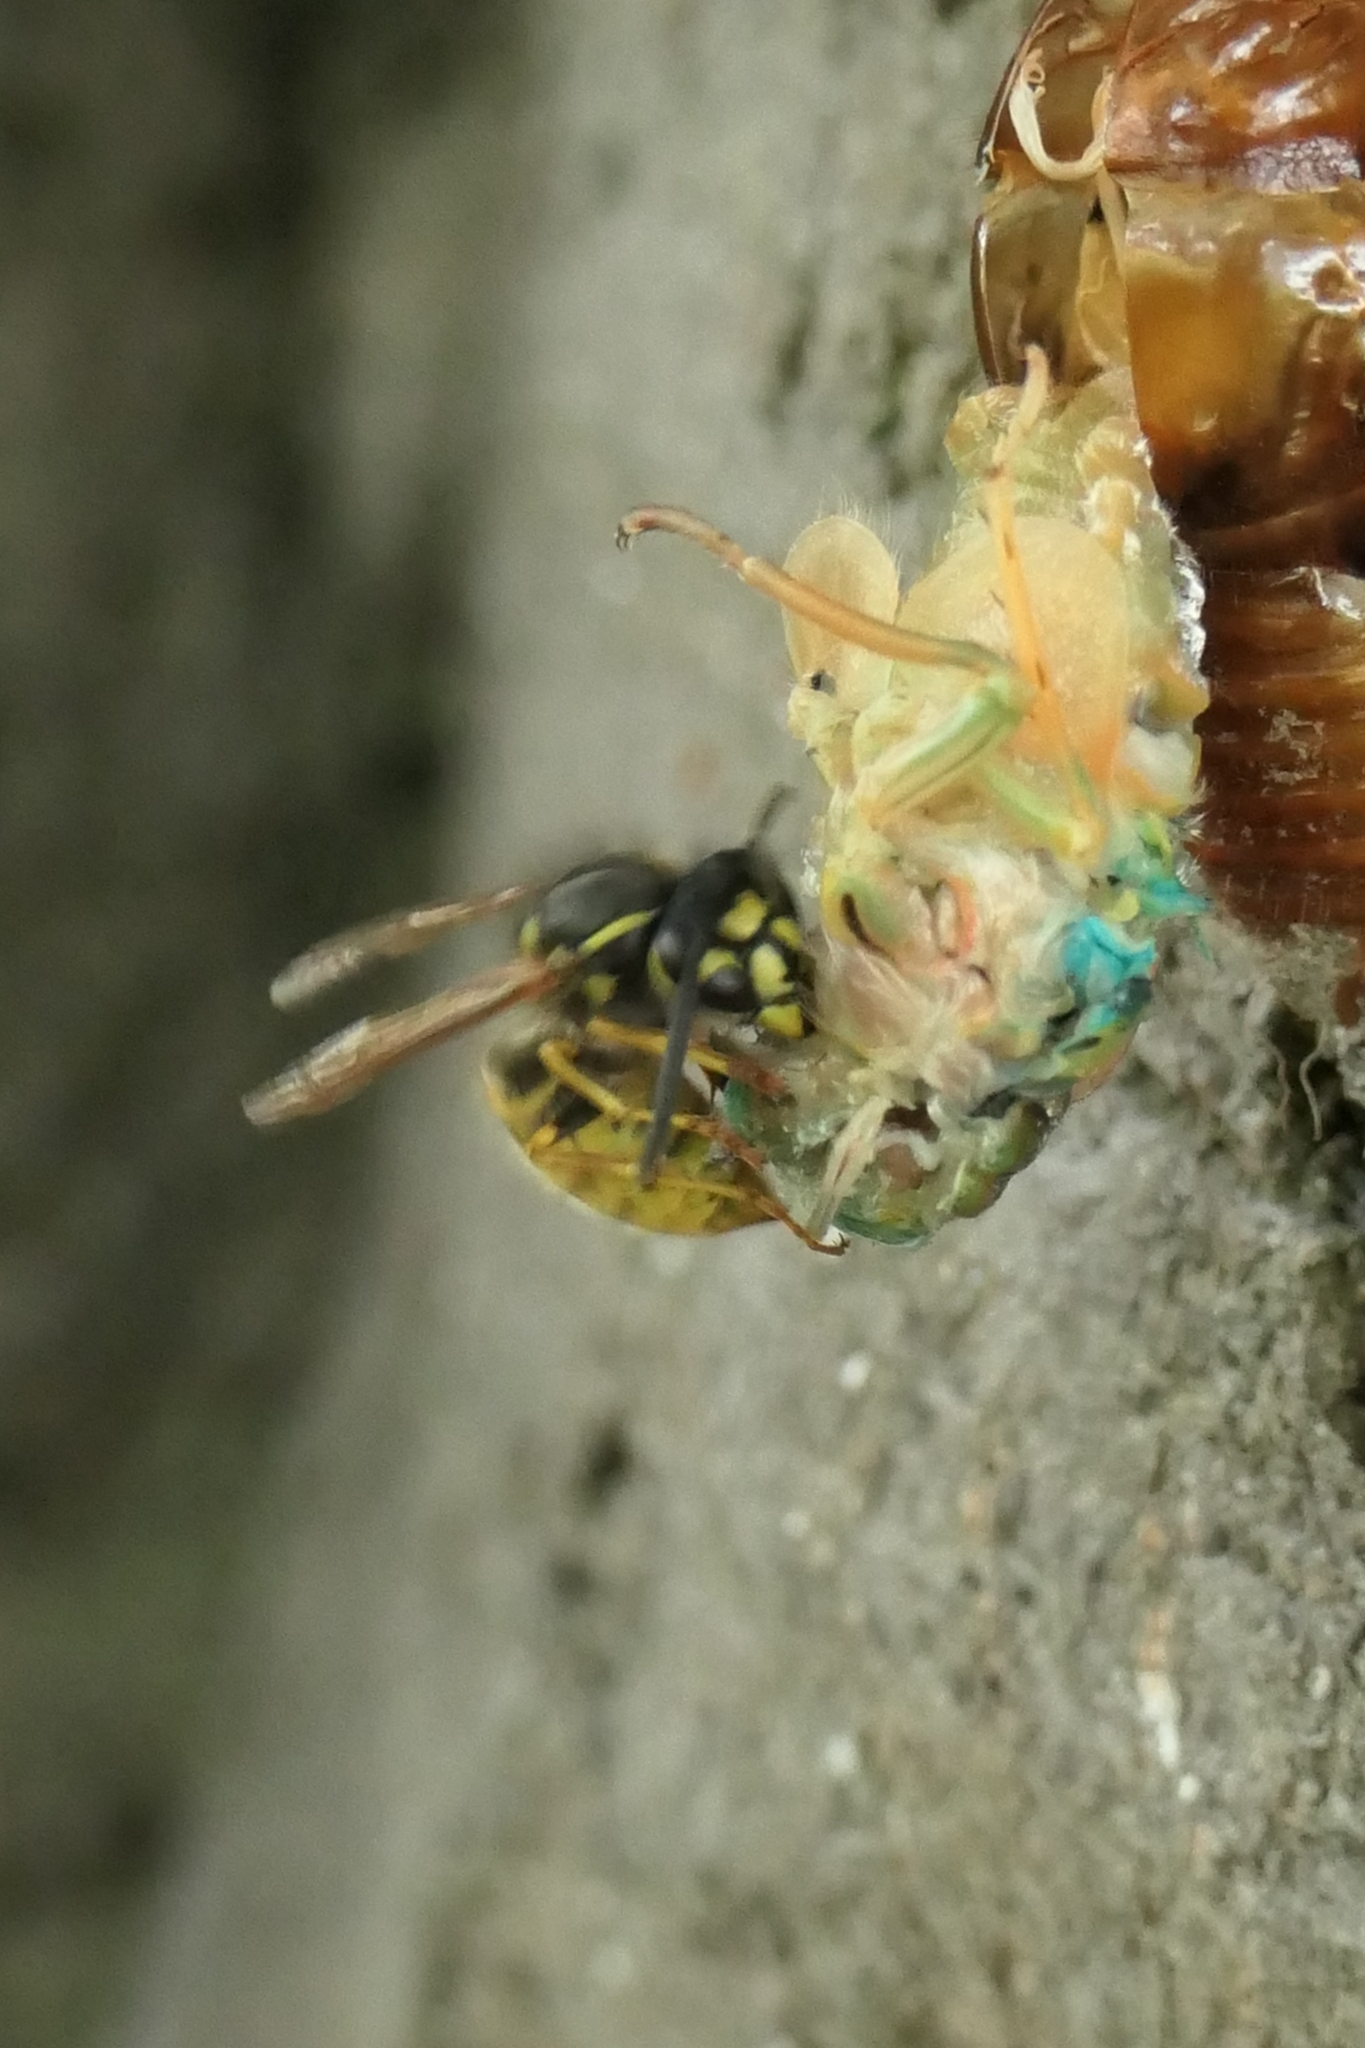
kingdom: Animalia
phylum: Arthropoda
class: Insecta
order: Hymenoptera
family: Vespidae
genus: Vespula
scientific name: Vespula vulgaris
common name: Common wasp
